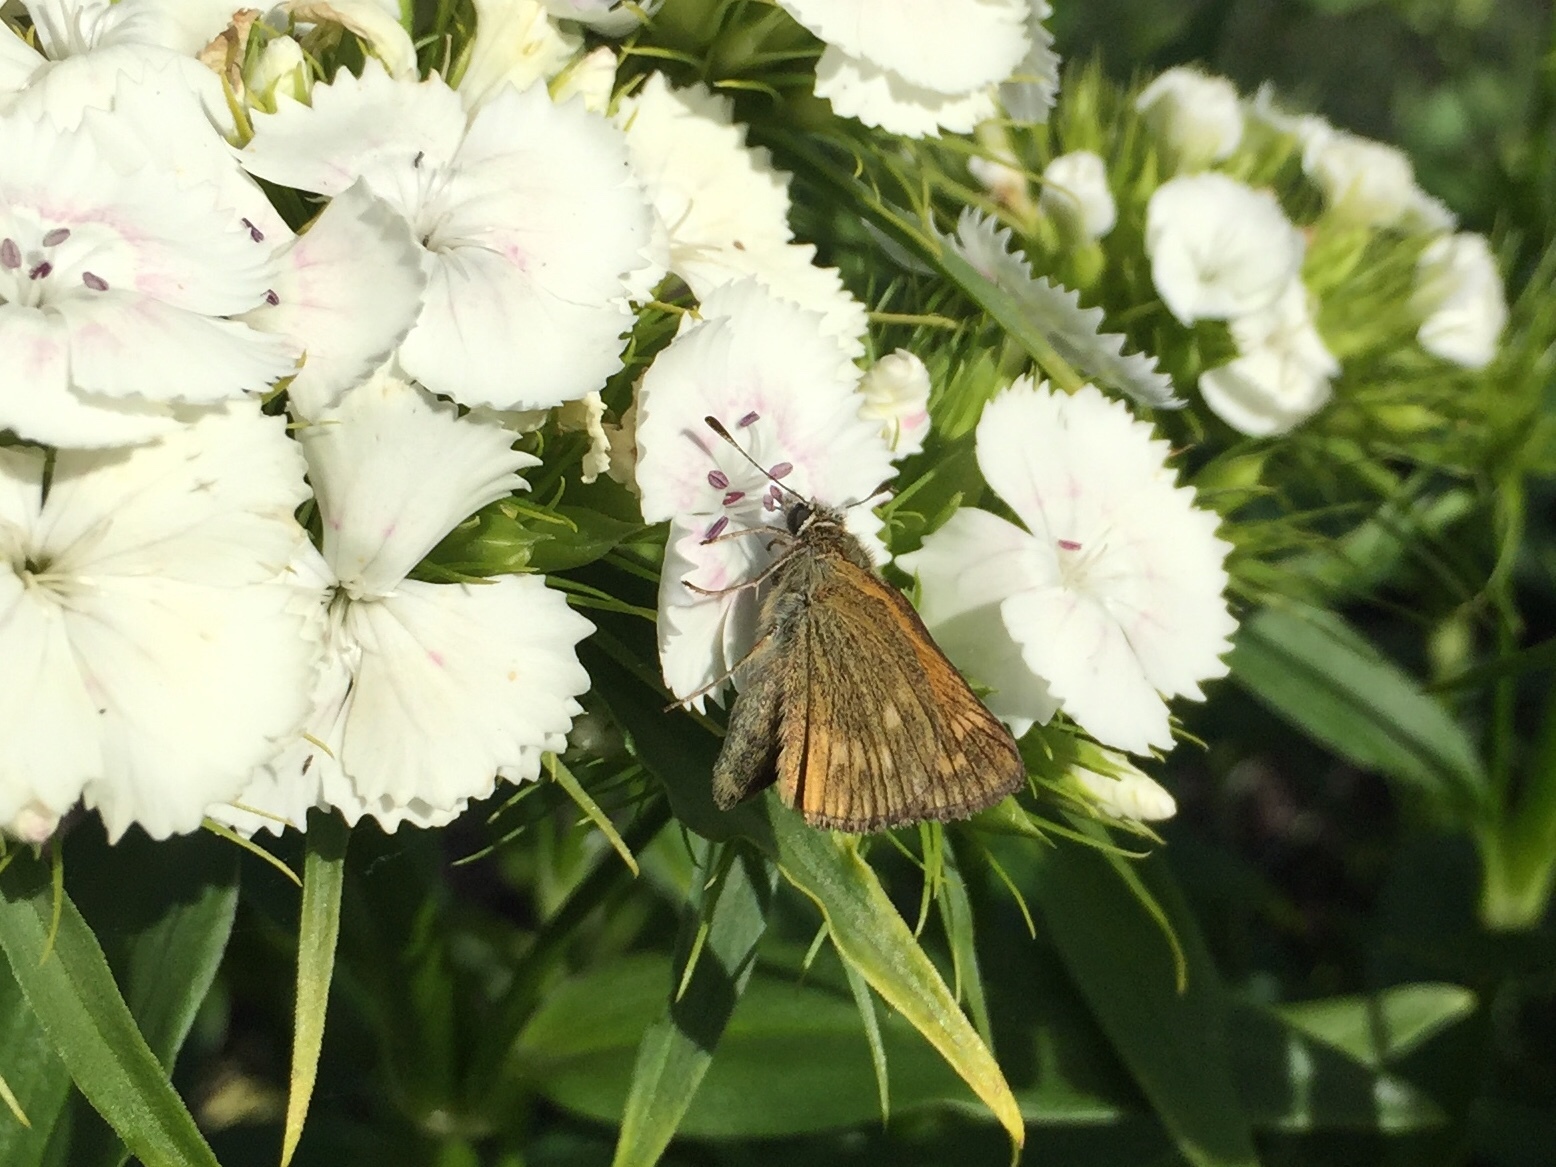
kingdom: Animalia
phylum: Arthropoda
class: Insecta
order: Lepidoptera
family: Hesperiidae
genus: Ochlodes
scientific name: Ochlodes venata
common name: Large skipper
